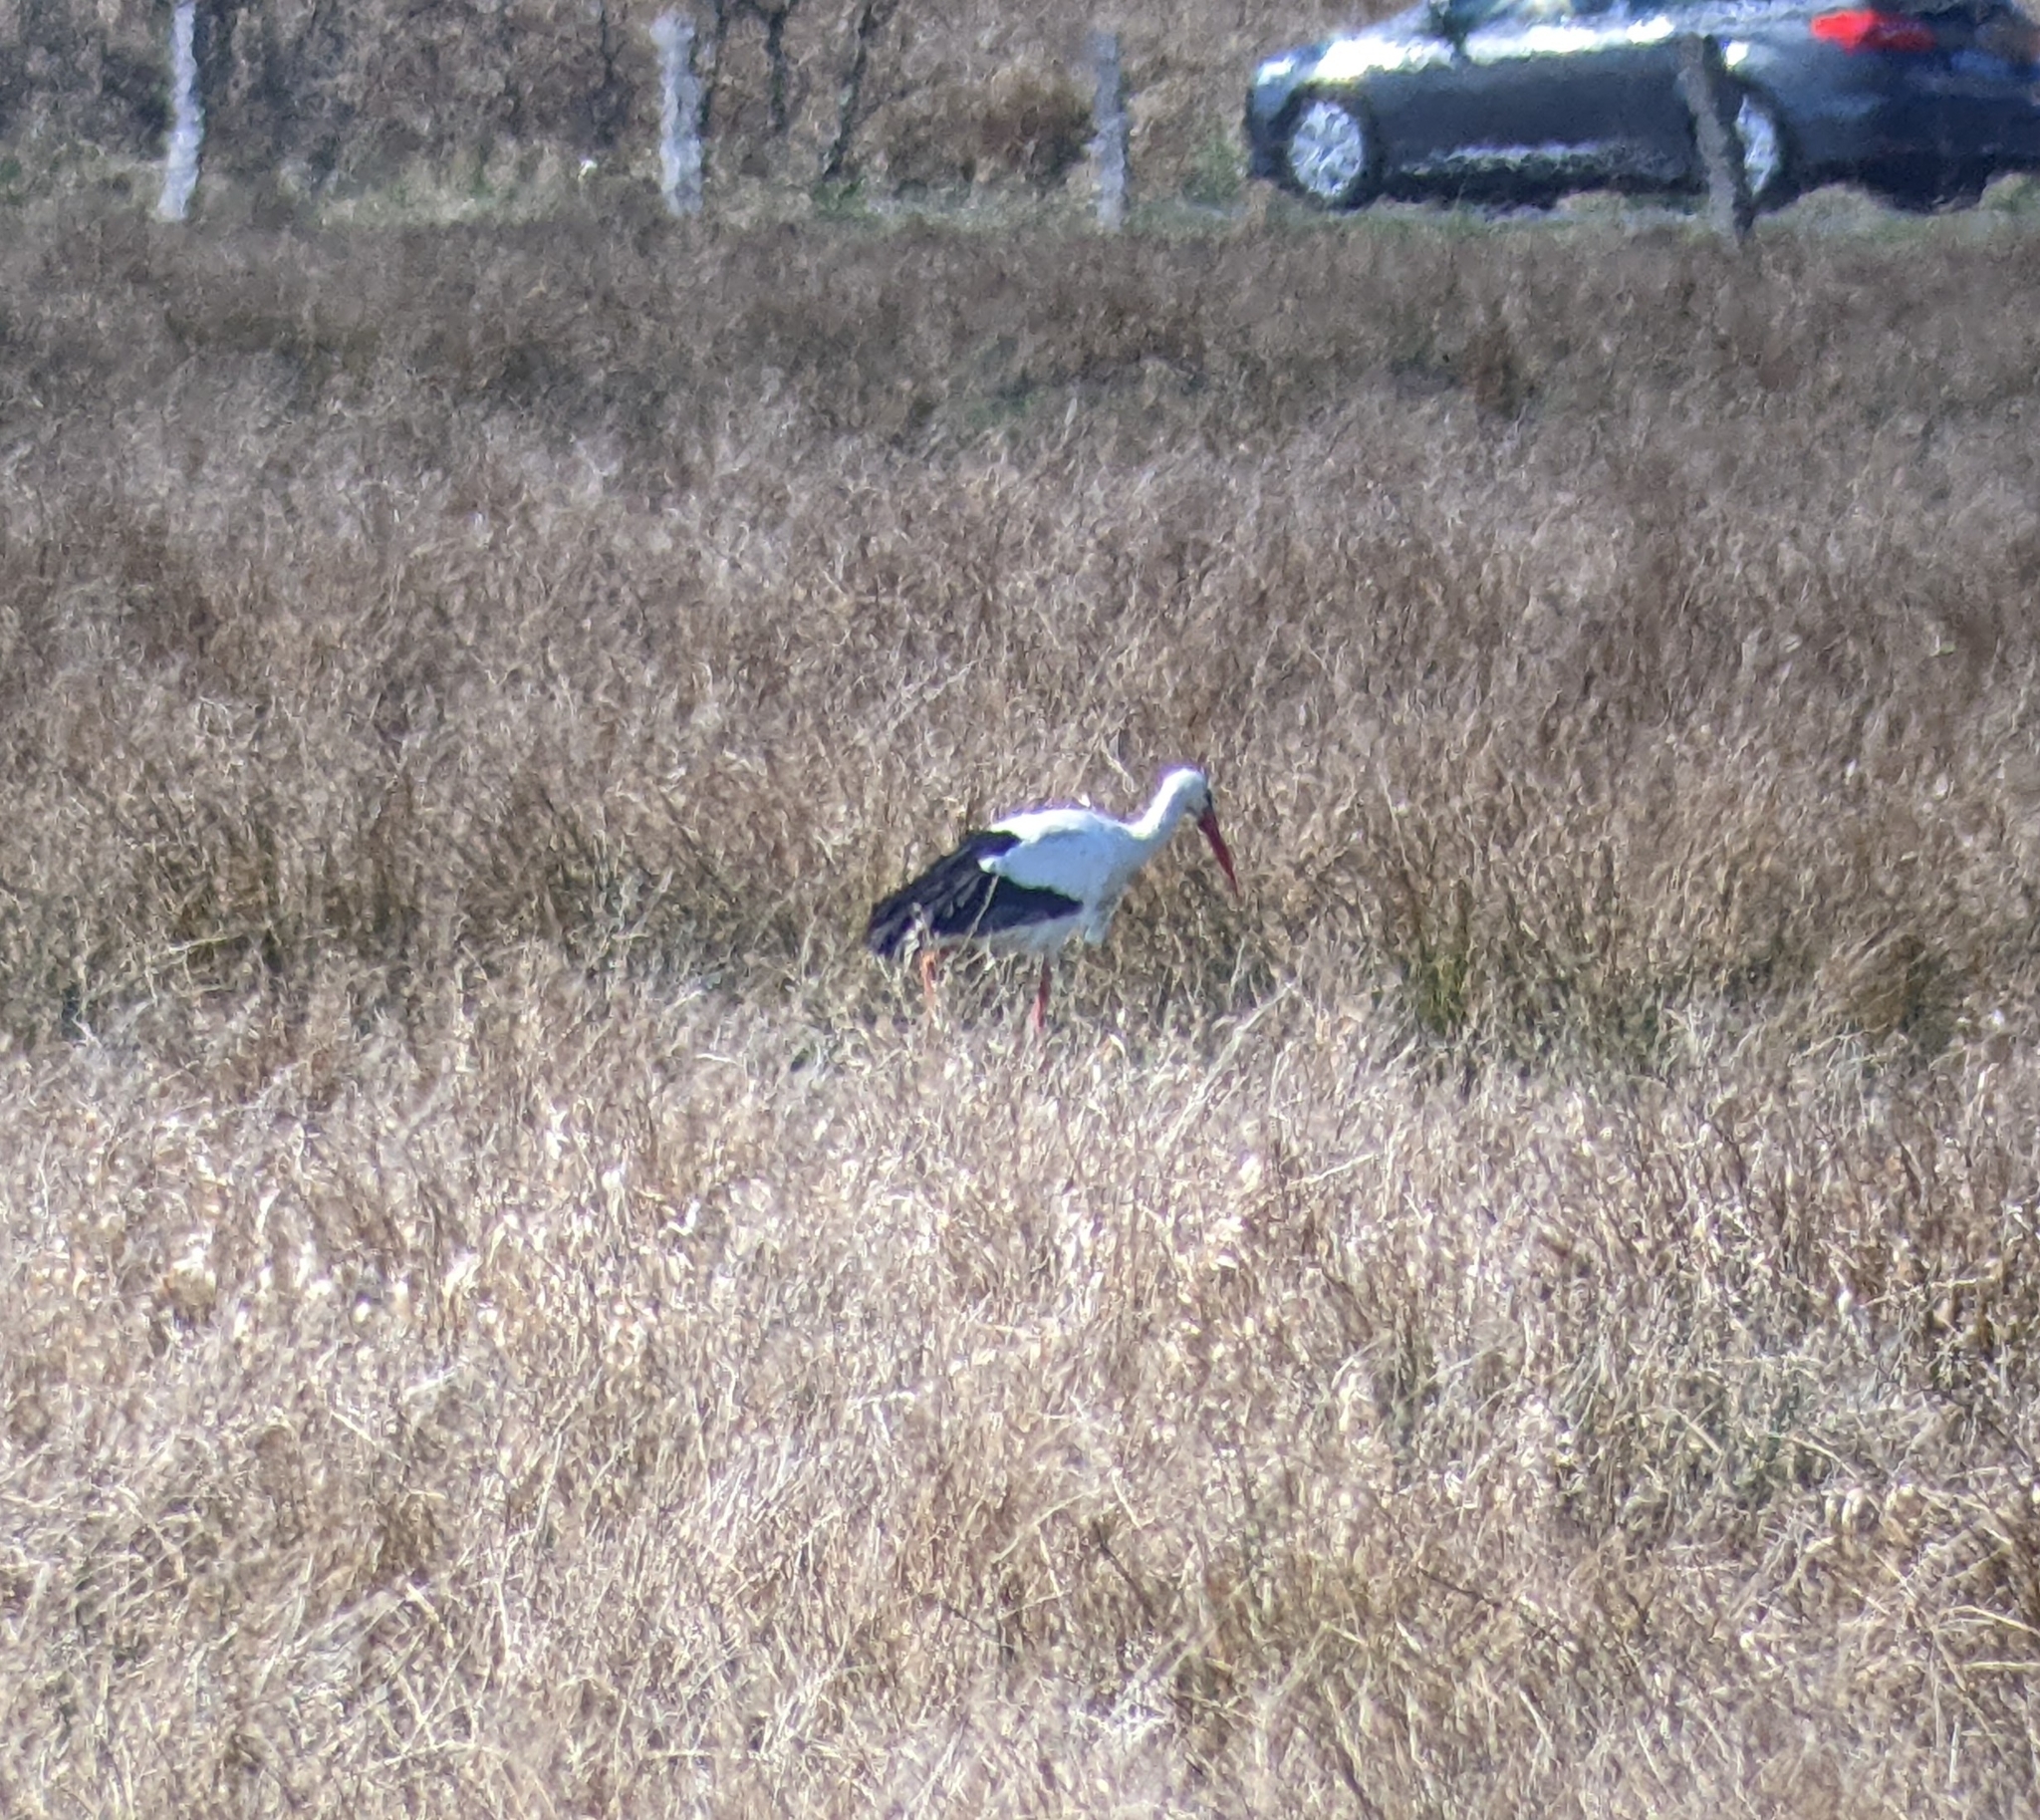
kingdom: Animalia
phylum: Chordata
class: Aves
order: Ciconiiformes
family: Ciconiidae
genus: Ciconia
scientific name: Ciconia ciconia
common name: White stork
